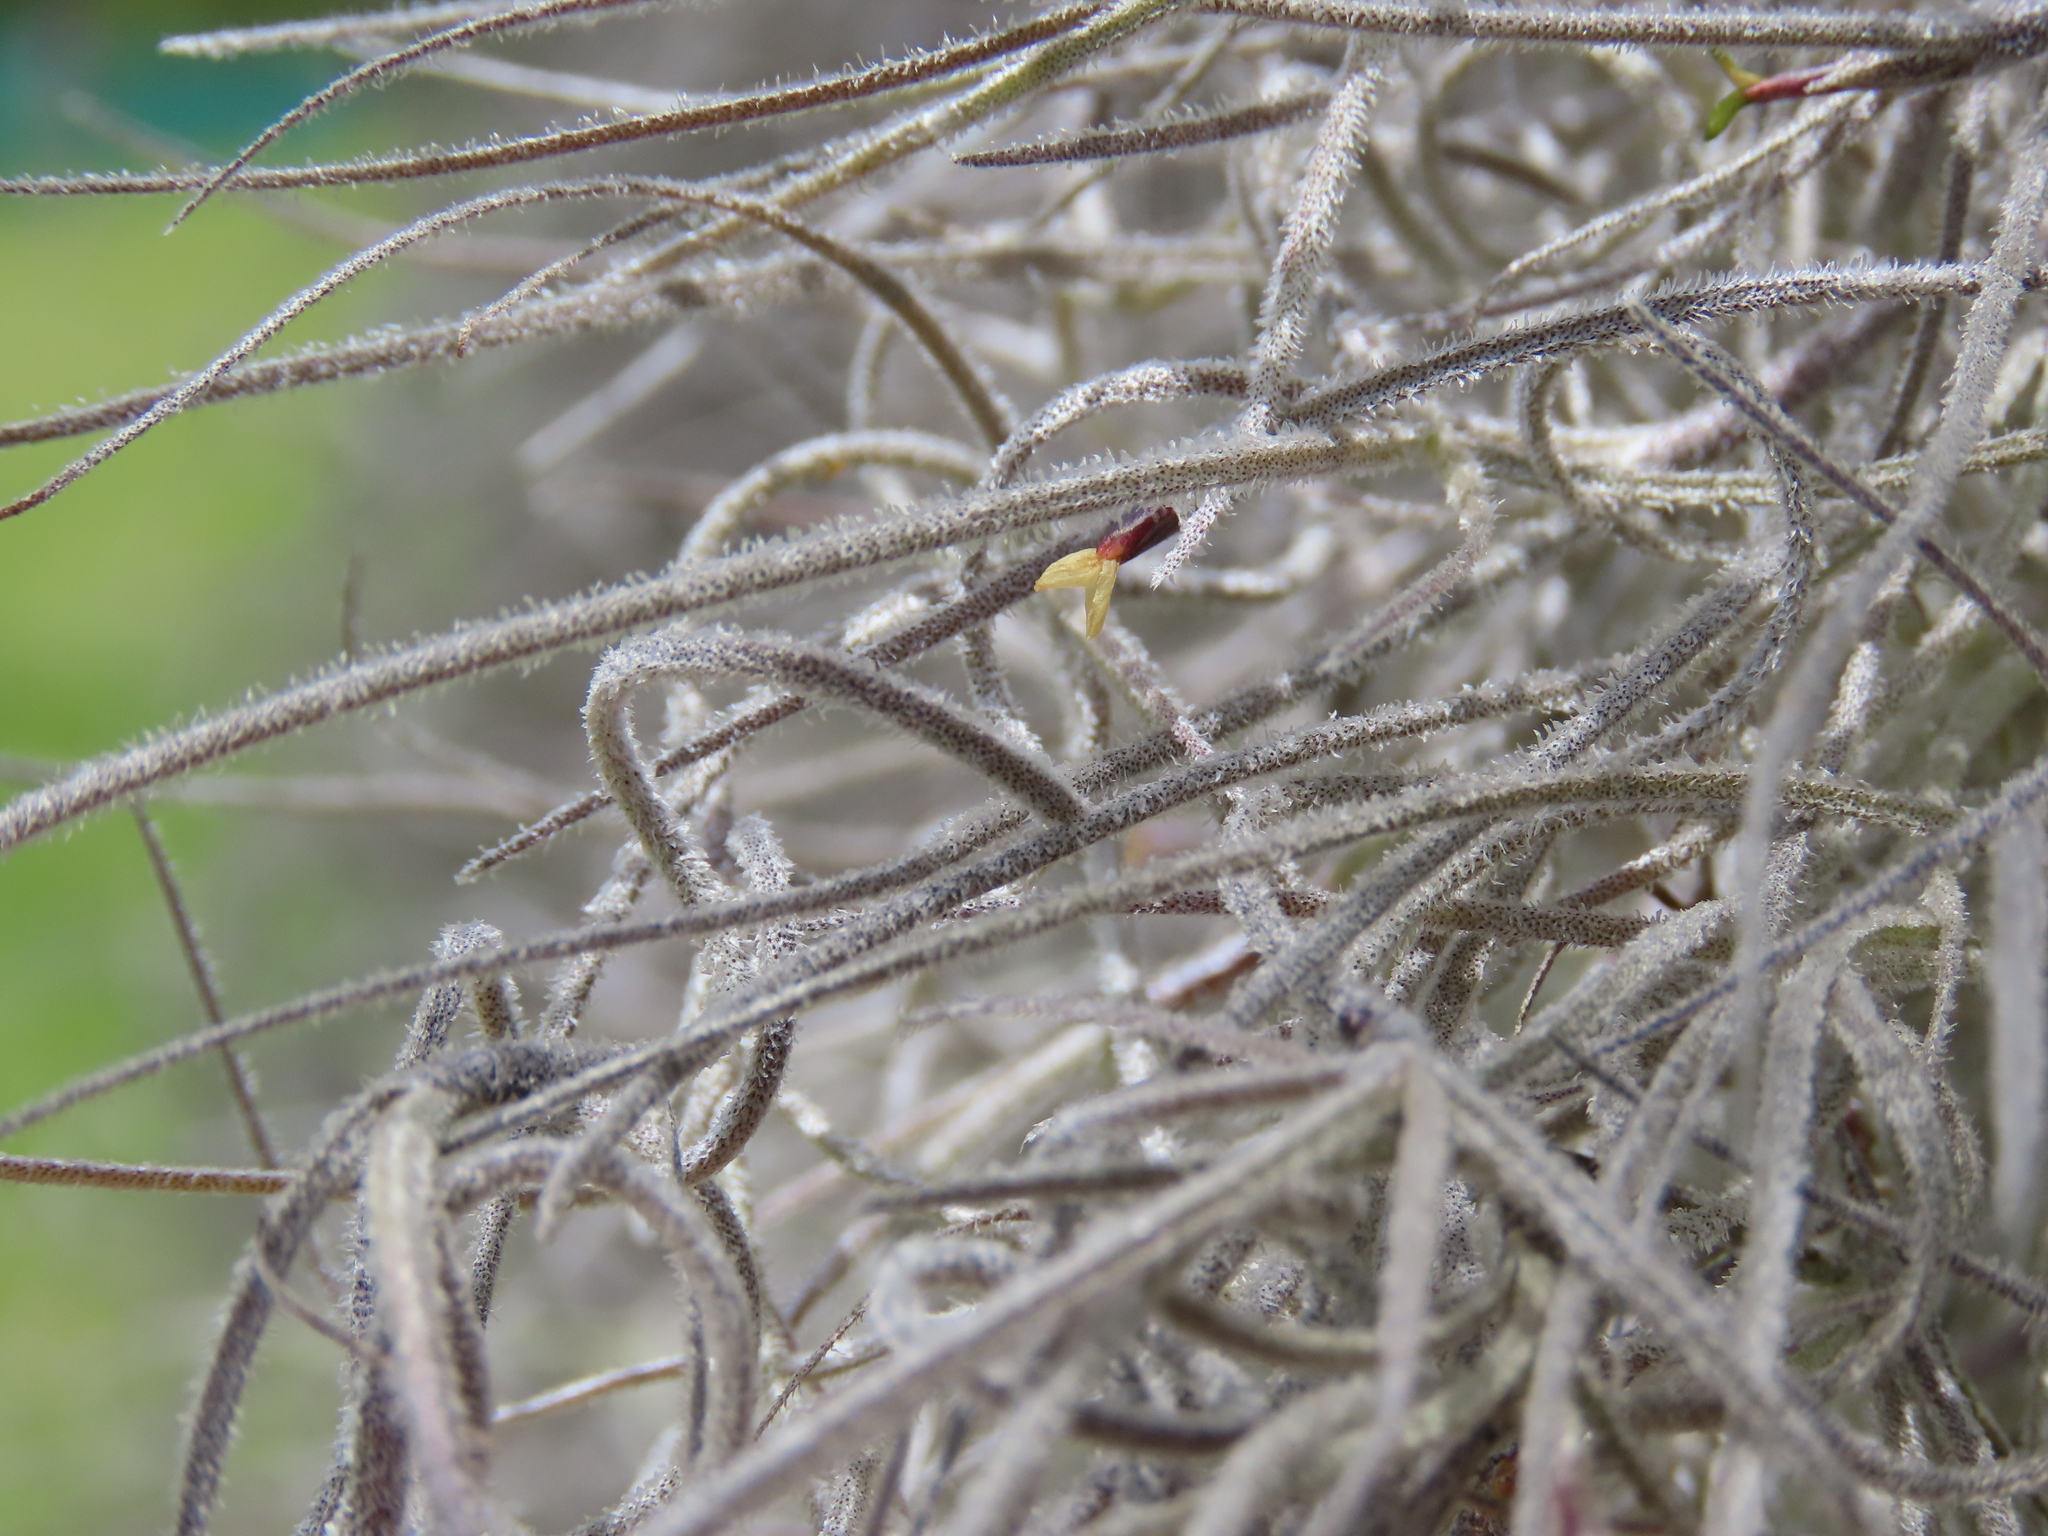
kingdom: Plantae
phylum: Tracheophyta
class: Liliopsida
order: Poales
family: Bromeliaceae
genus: Tillandsia
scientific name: Tillandsia usneoides
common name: Spanish moss
